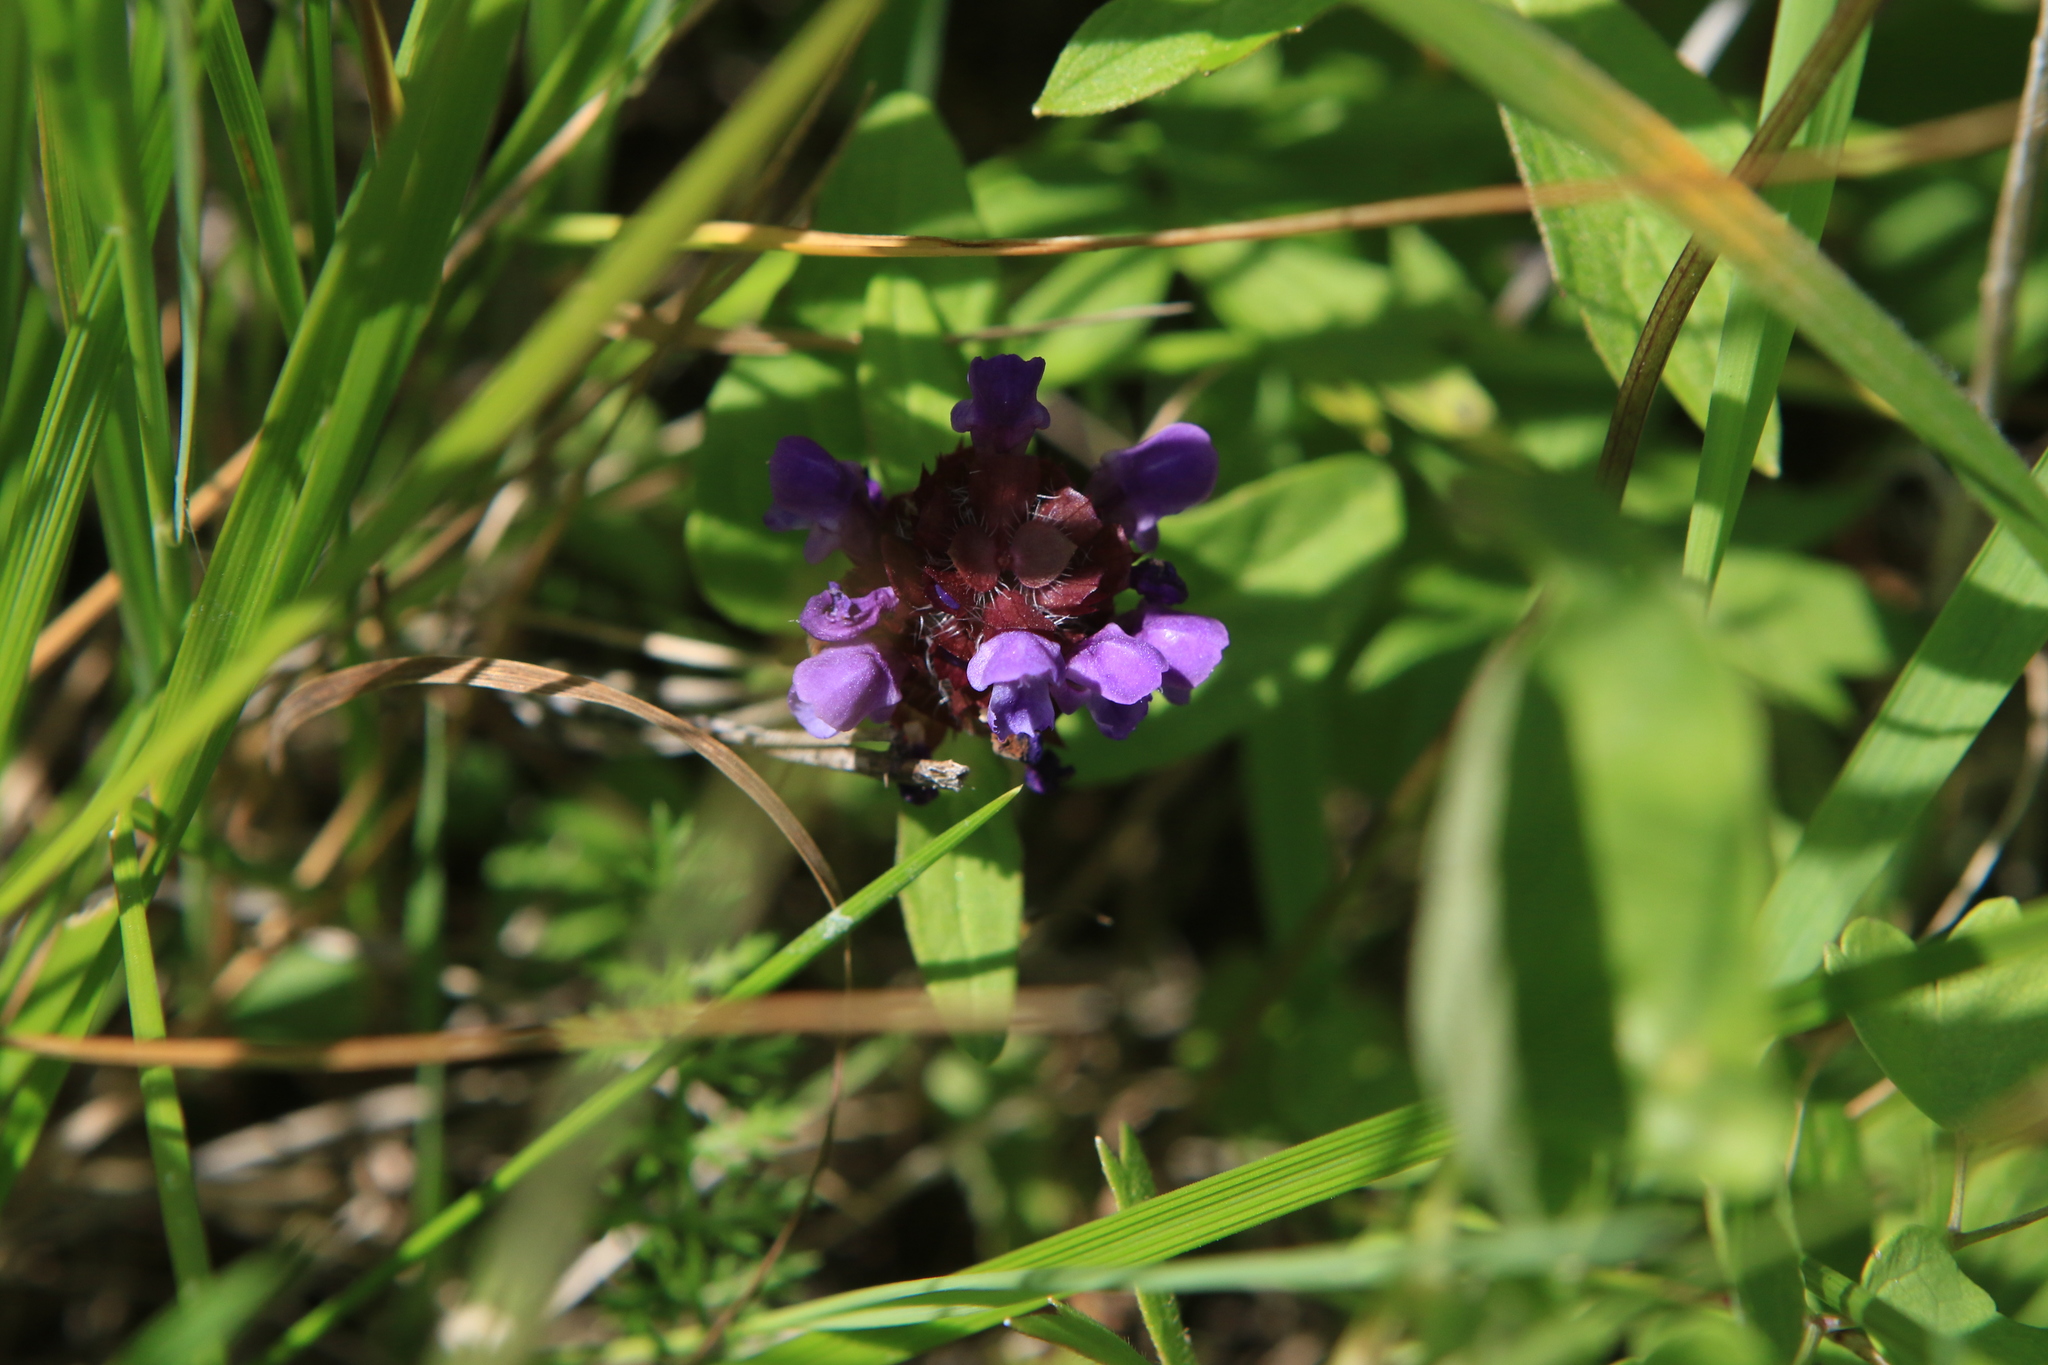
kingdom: Plantae
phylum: Tracheophyta
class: Magnoliopsida
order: Lamiales
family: Lamiaceae
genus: Prunella
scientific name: Prunella vulgaris
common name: Heal-all
